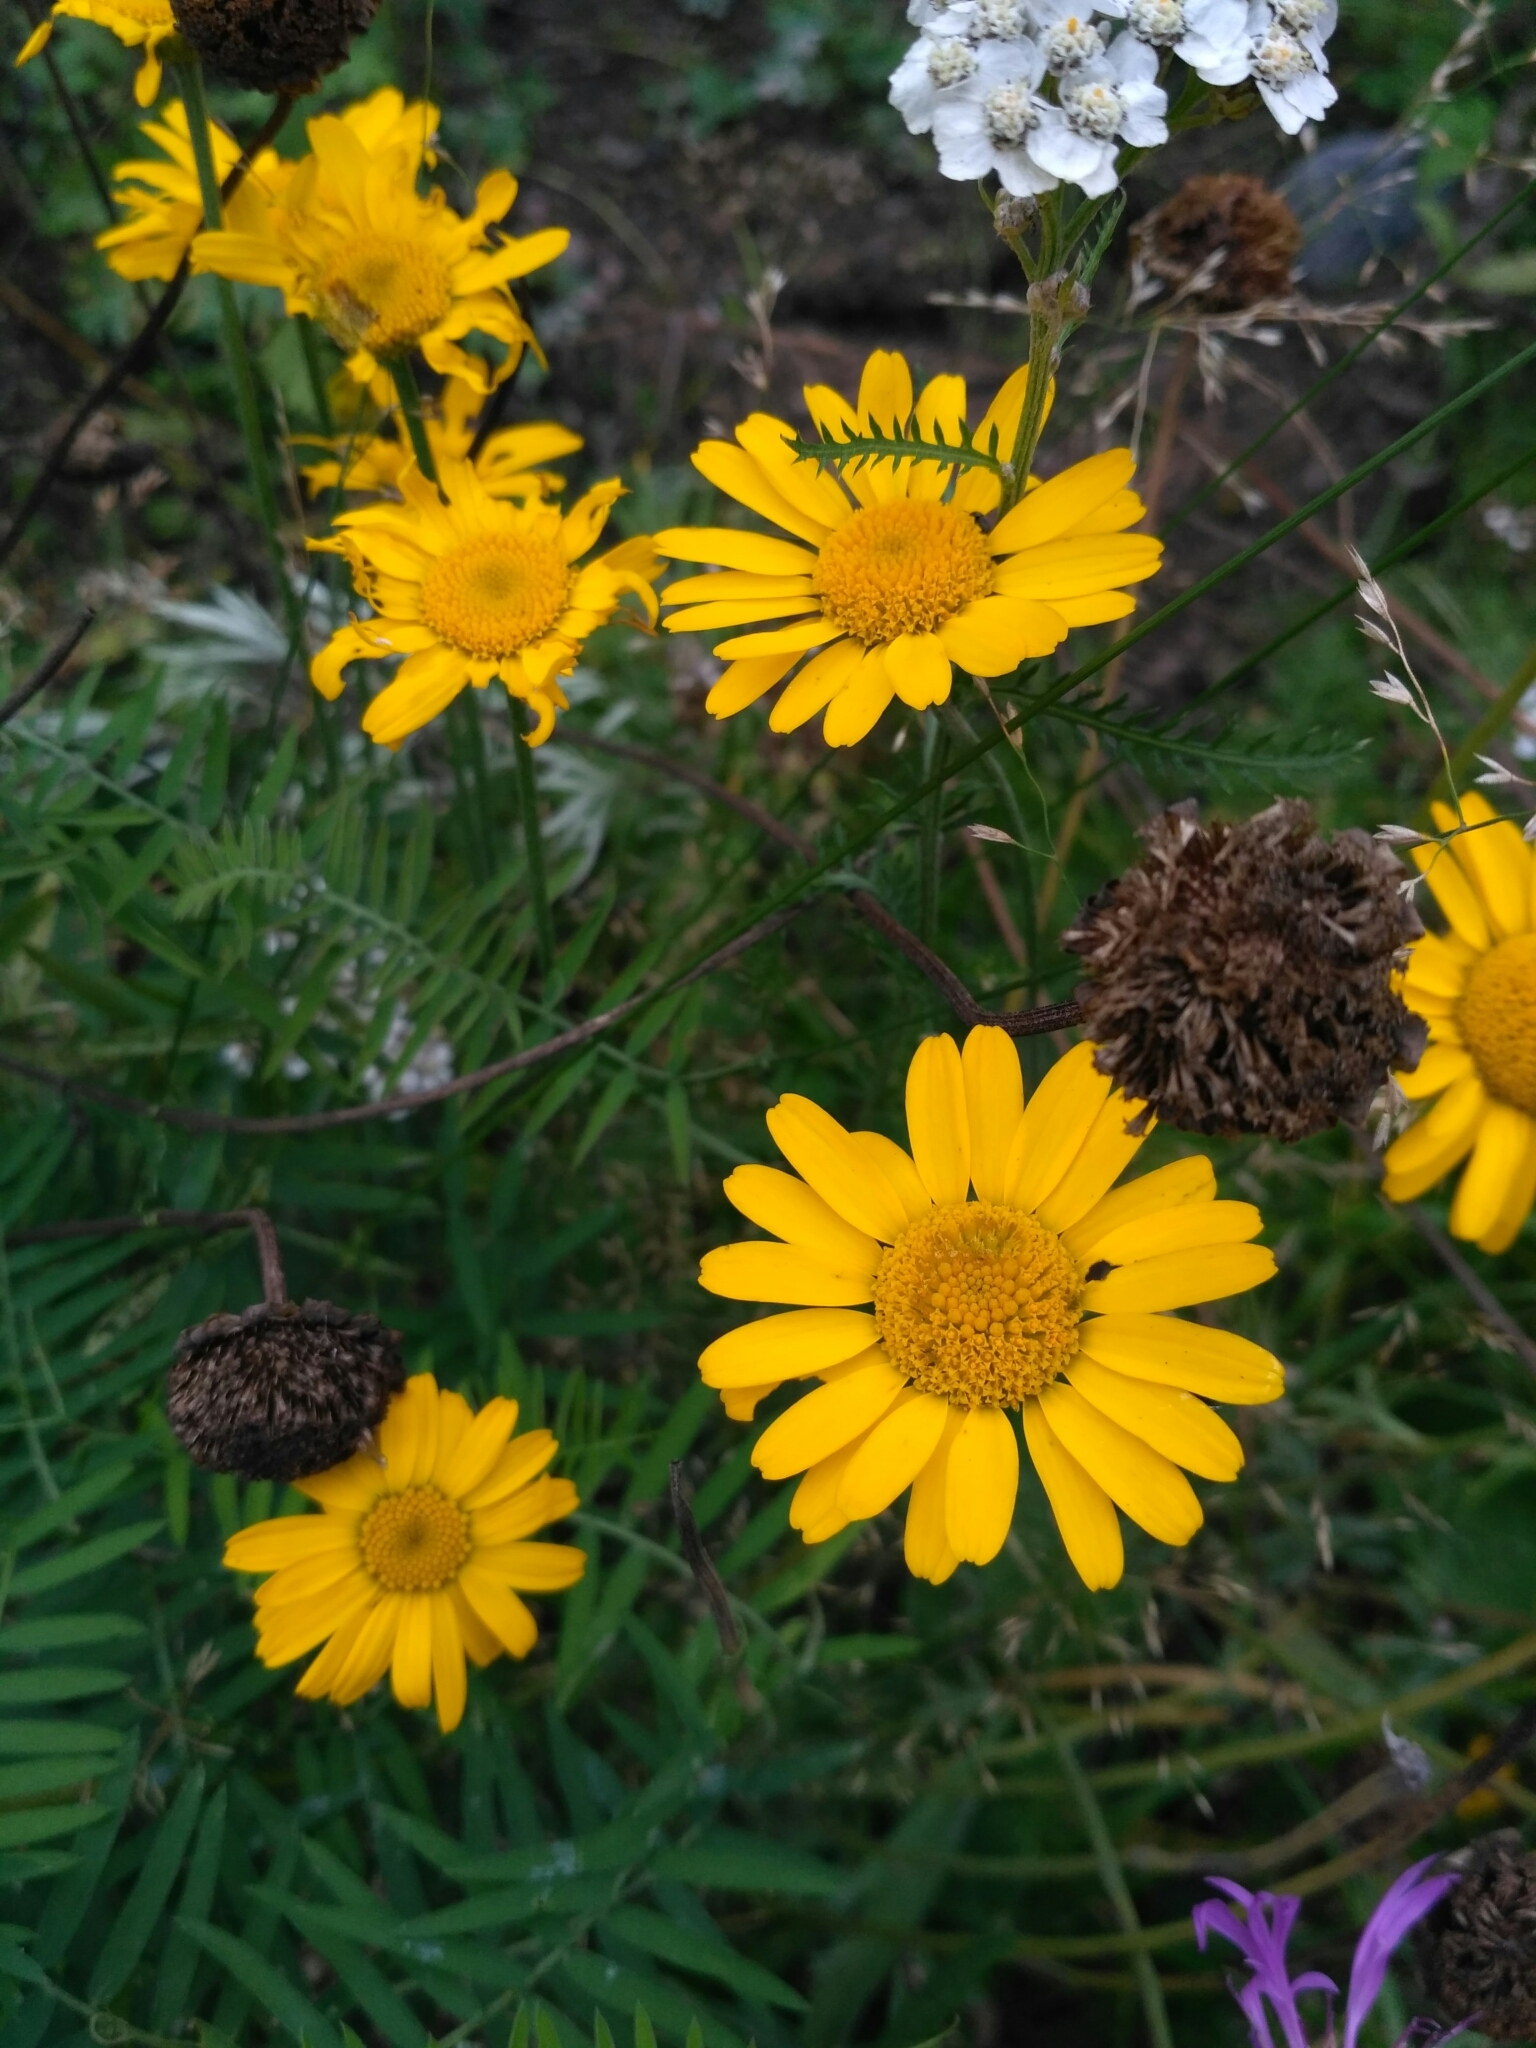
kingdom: Plantae
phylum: Tracheophyta
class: Magnoliopsida
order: Asterales
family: Asteraceae
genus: Cota
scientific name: Cota tinctoria
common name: Golden chamomile
